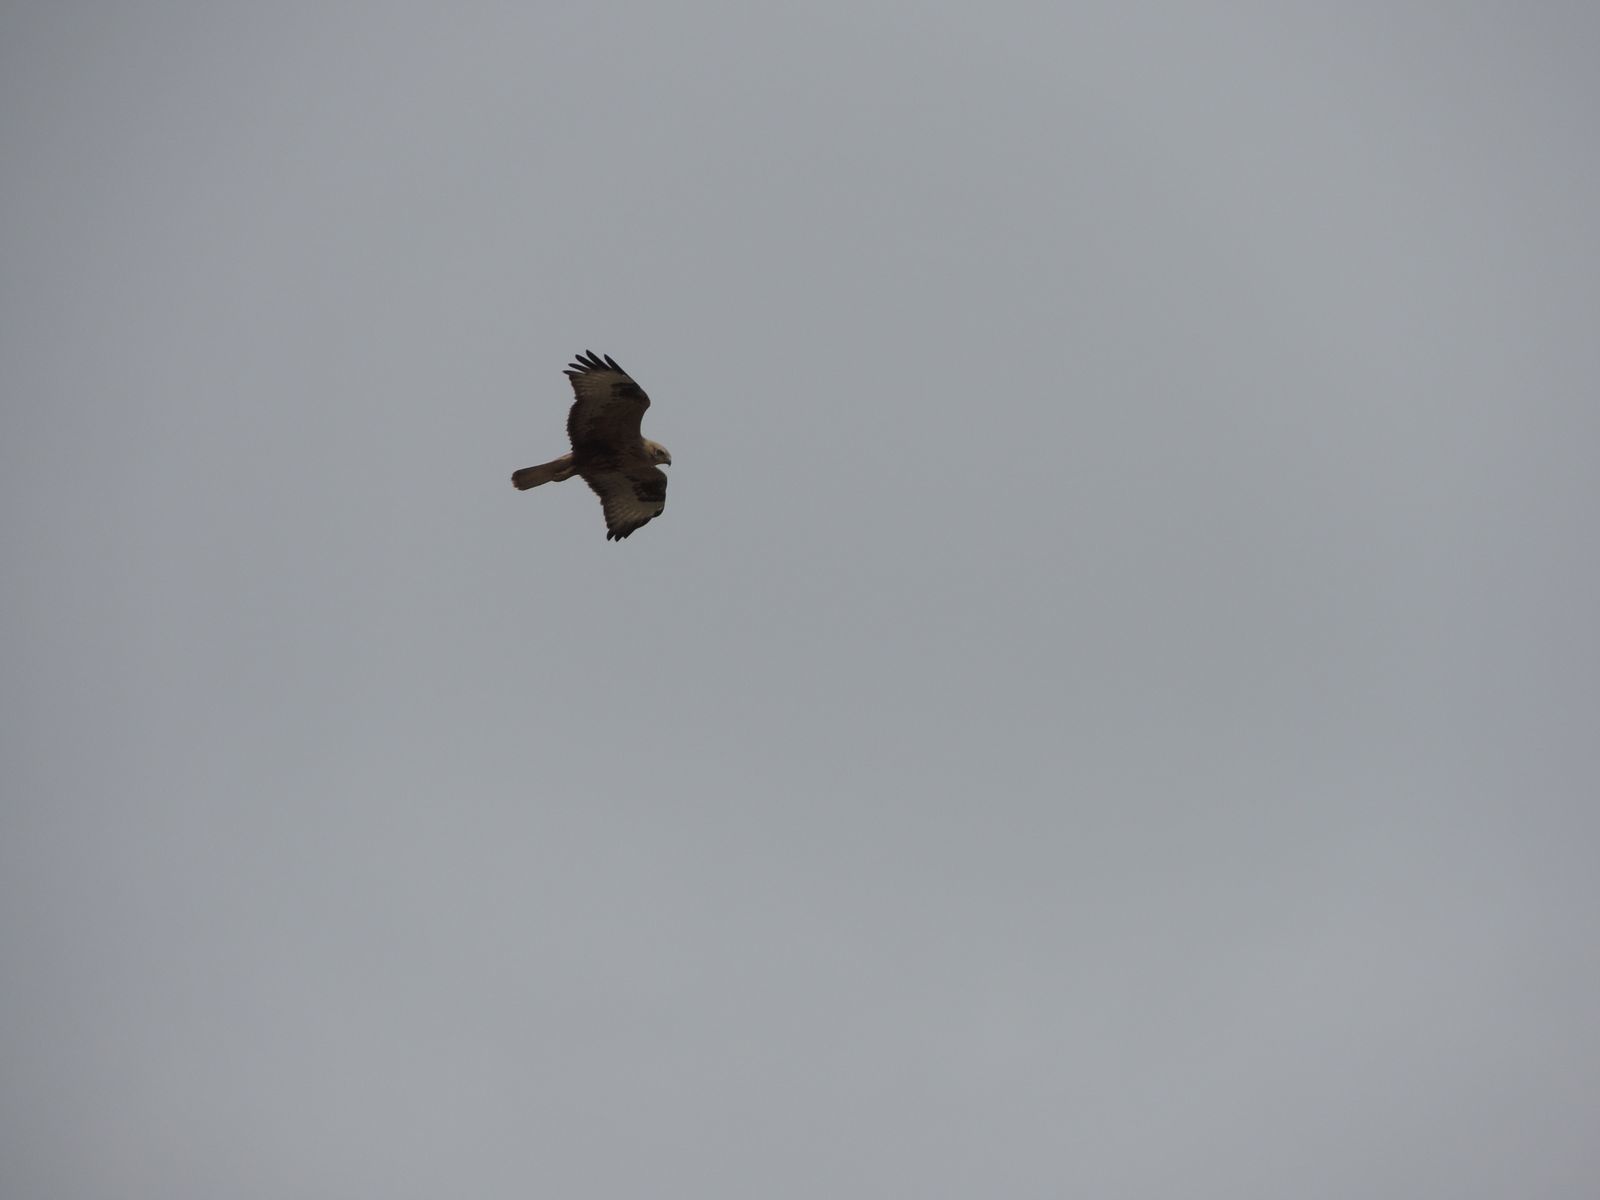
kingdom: Animalia
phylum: Chordata
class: Aves
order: Accipitriformes
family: Accipitridae
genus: Buteo
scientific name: Buteo rufinus
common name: Long-legged buzzard
